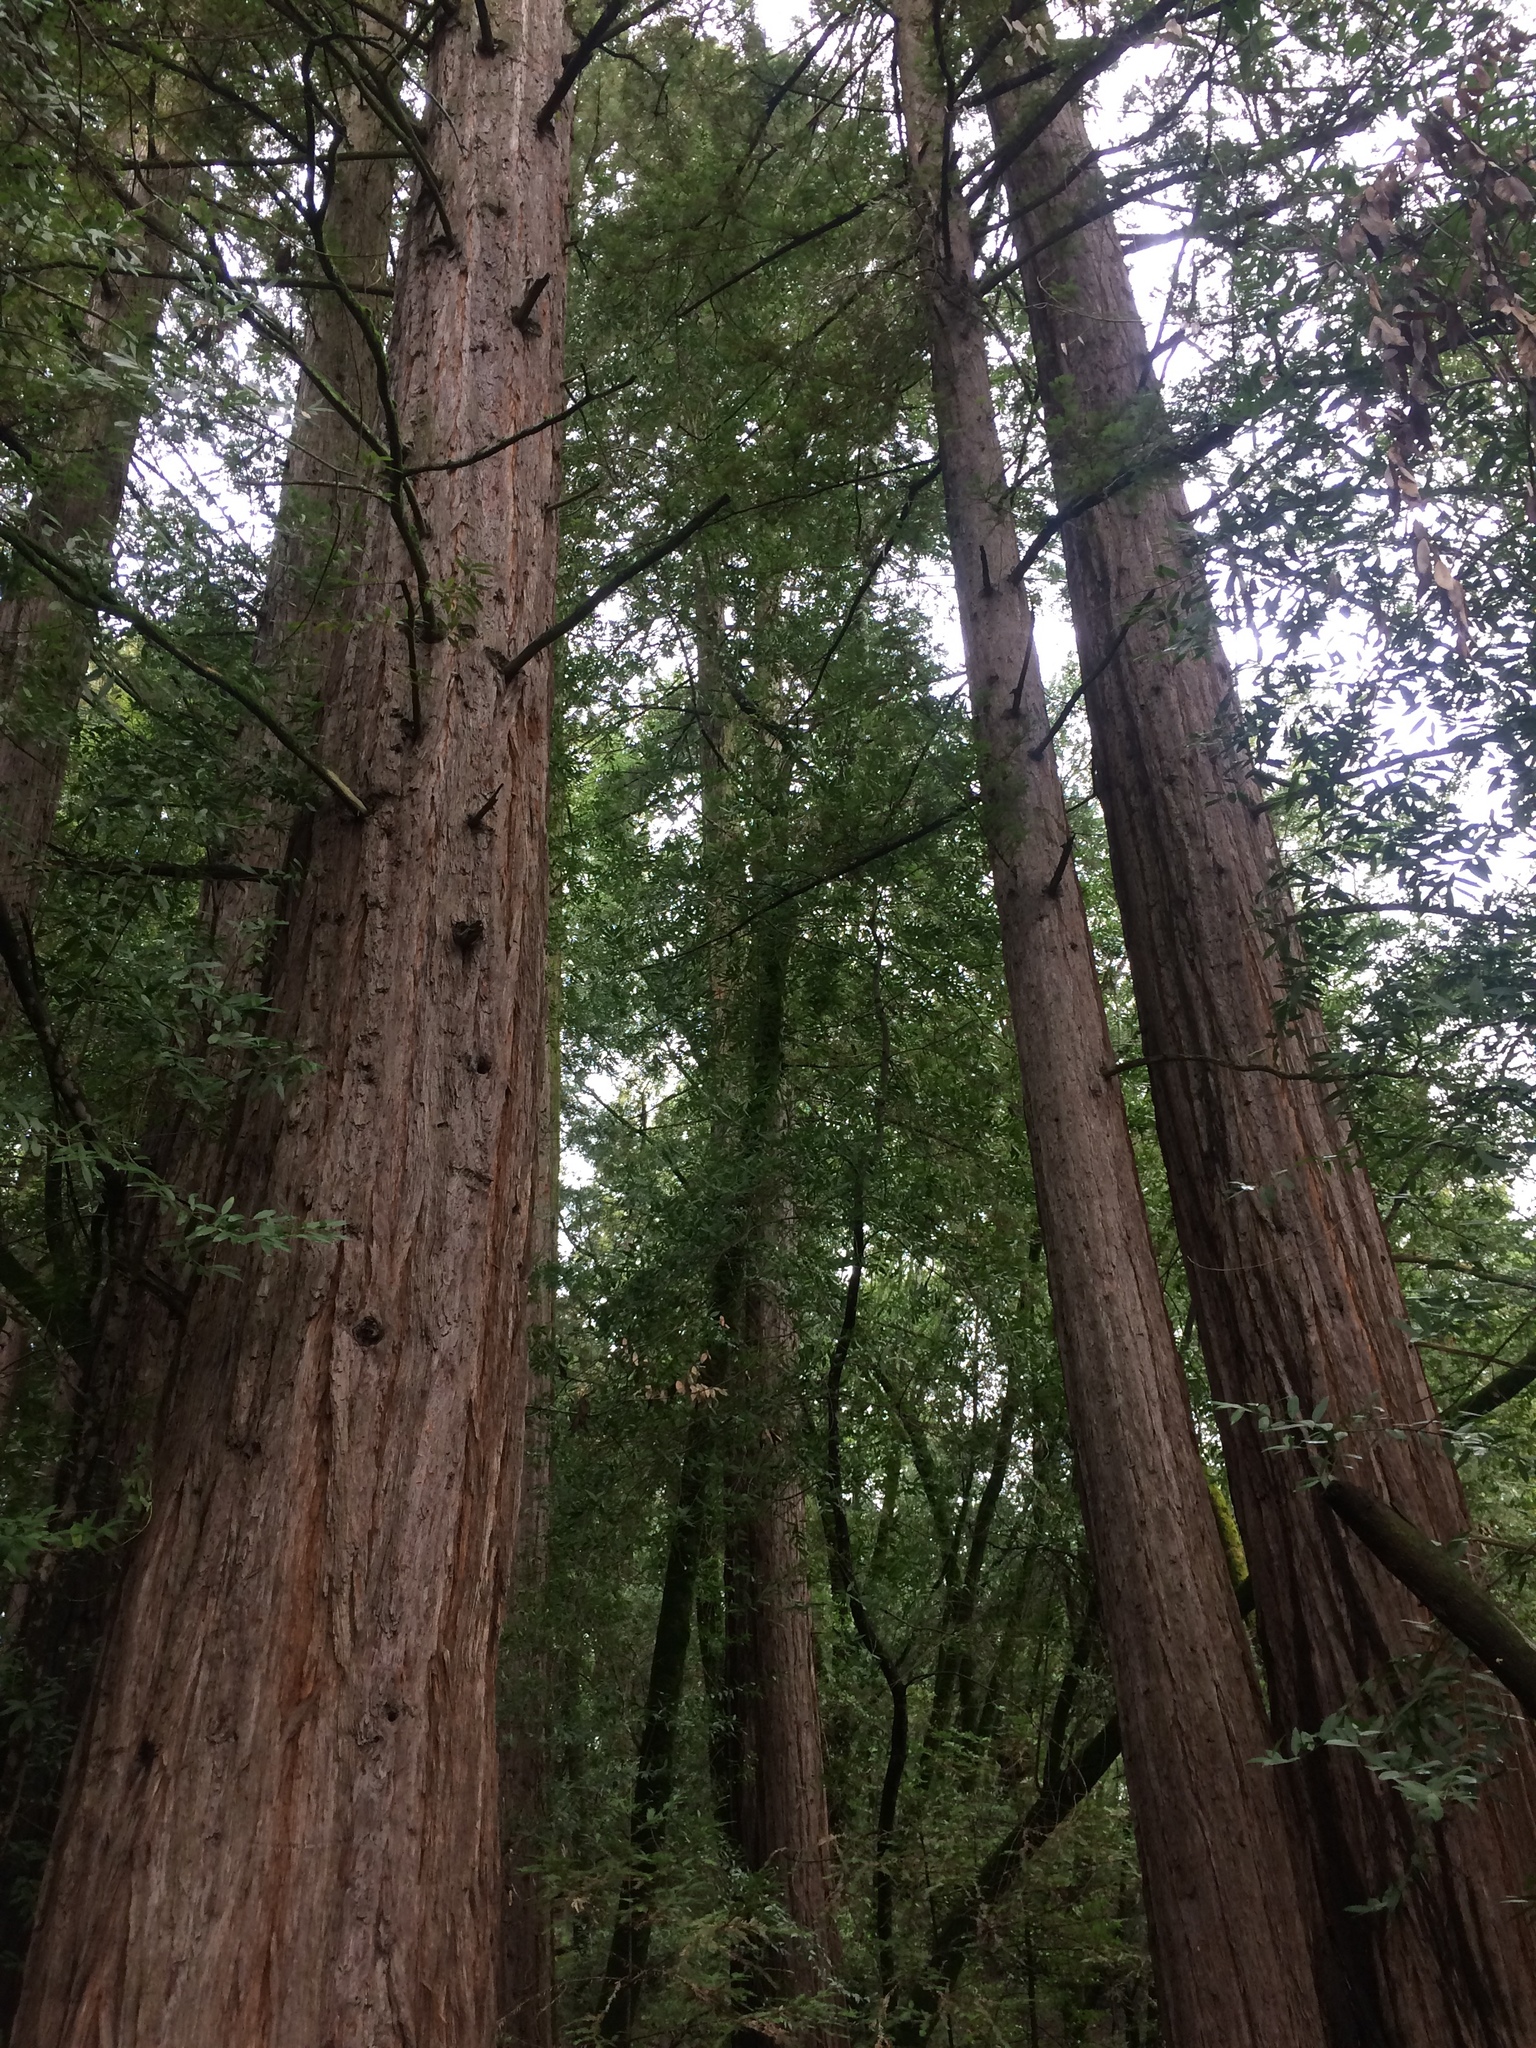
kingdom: Plantae
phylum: Tracheophyta
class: Pinopsida
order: Pinales
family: Cupressaceae
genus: Sequoia
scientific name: Sequoia sempervirens
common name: Coast redwood
